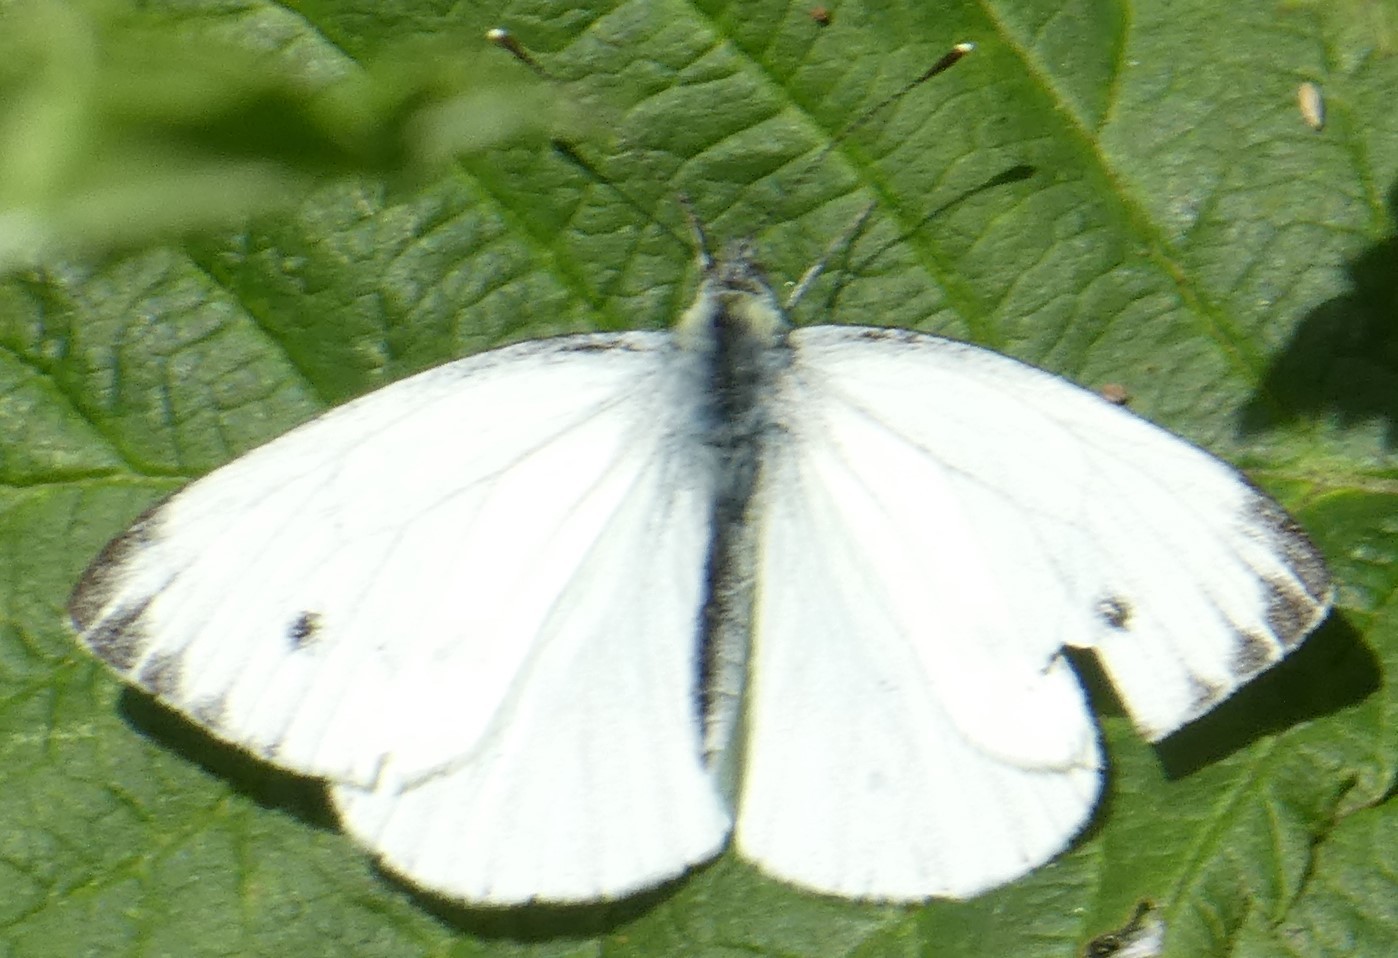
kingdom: Animalia
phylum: Arthropoda
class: Insecta
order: Lepidoptera
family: Pieridae
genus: Pieris
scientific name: Pieris napi
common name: Green-veined white
